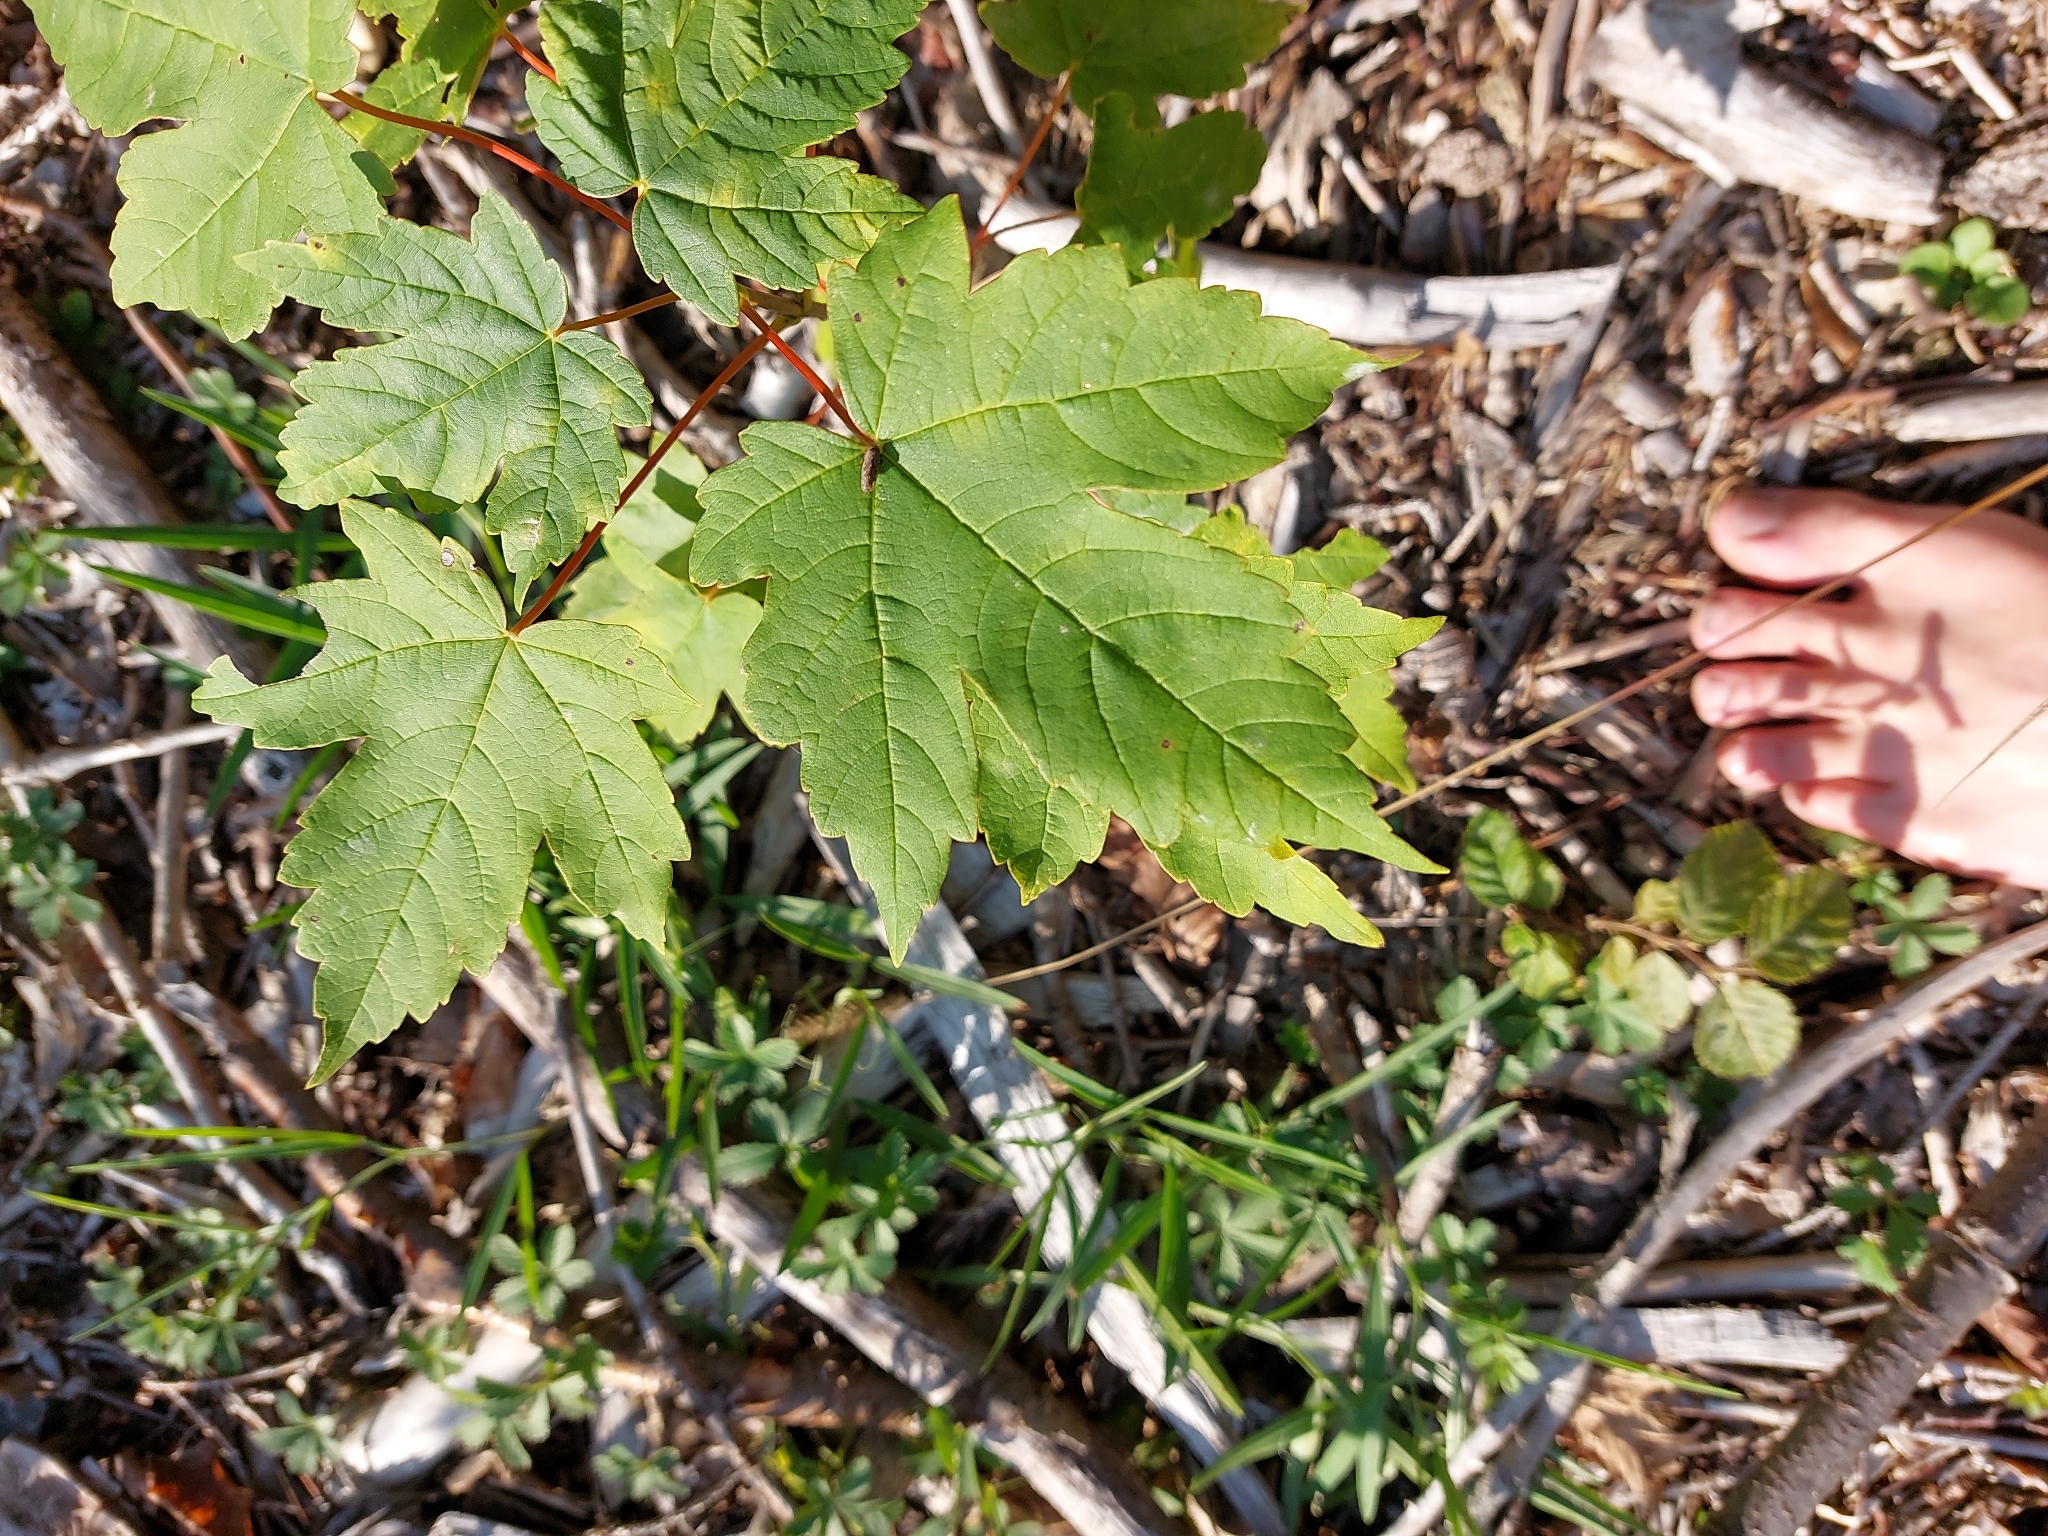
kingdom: Plantae
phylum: Tracheophyta
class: Magnoliopsida
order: Sapindales
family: Sapindaceae
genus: Acer
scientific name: Acer pseudoplatanus
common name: Sycamore
